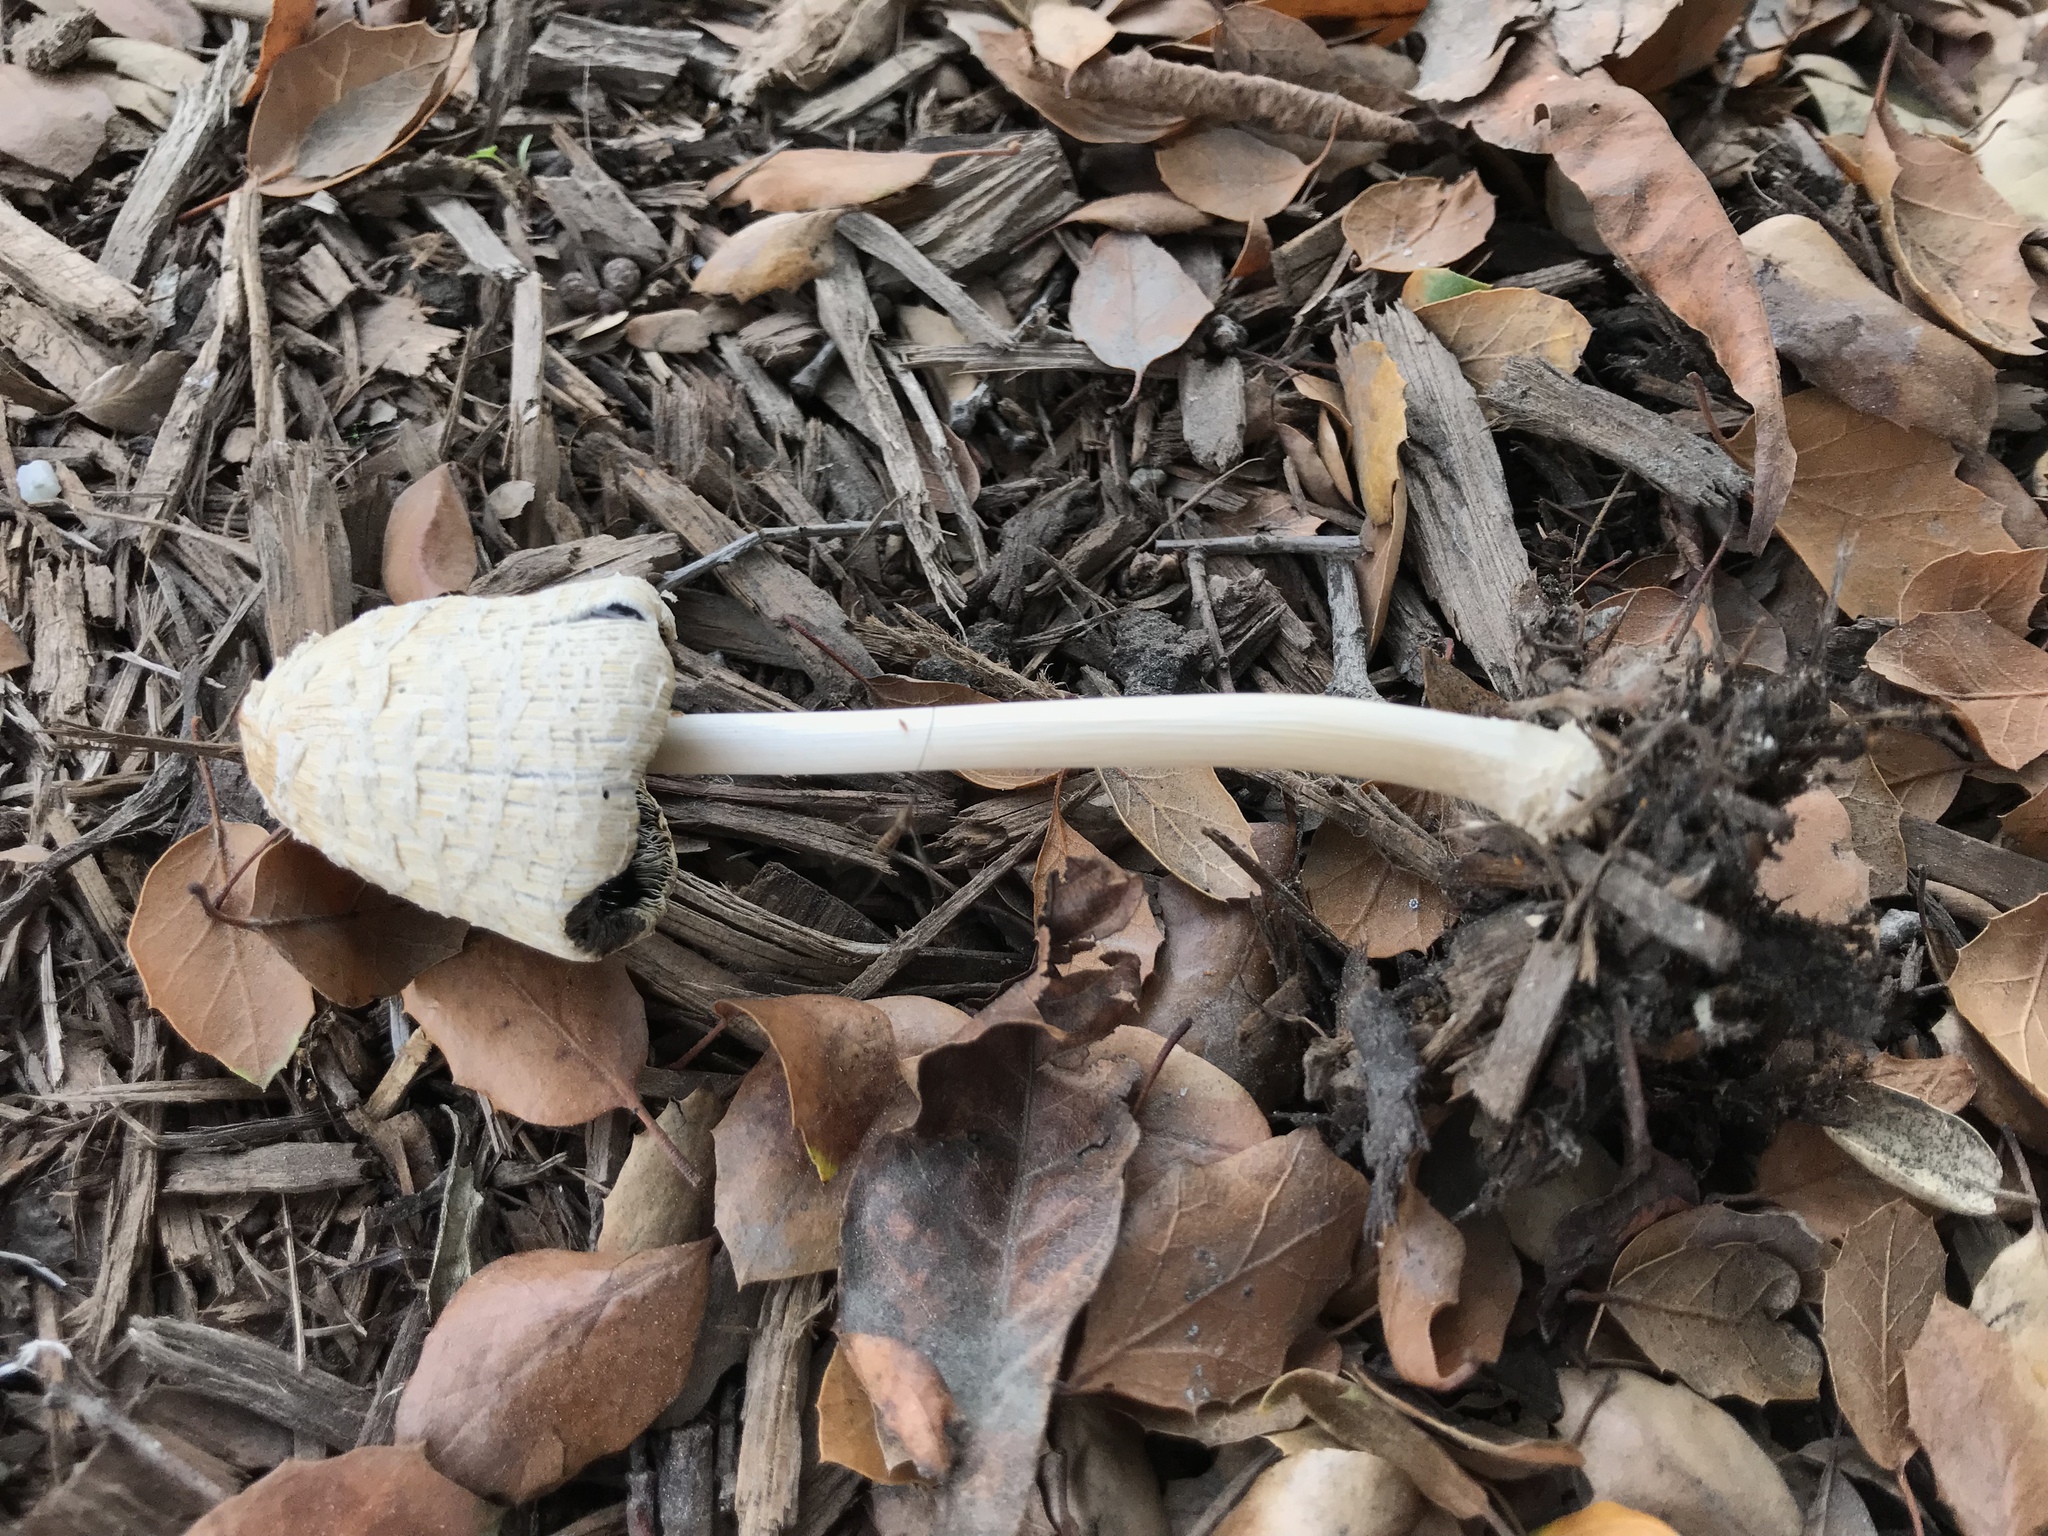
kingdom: Fungi
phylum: Basidiomycota
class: Agaricomycetes
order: Agaricales
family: Psathyrellaceae
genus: Coprinellus
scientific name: Coprinellus flocculosus
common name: Flocculose inkcap
